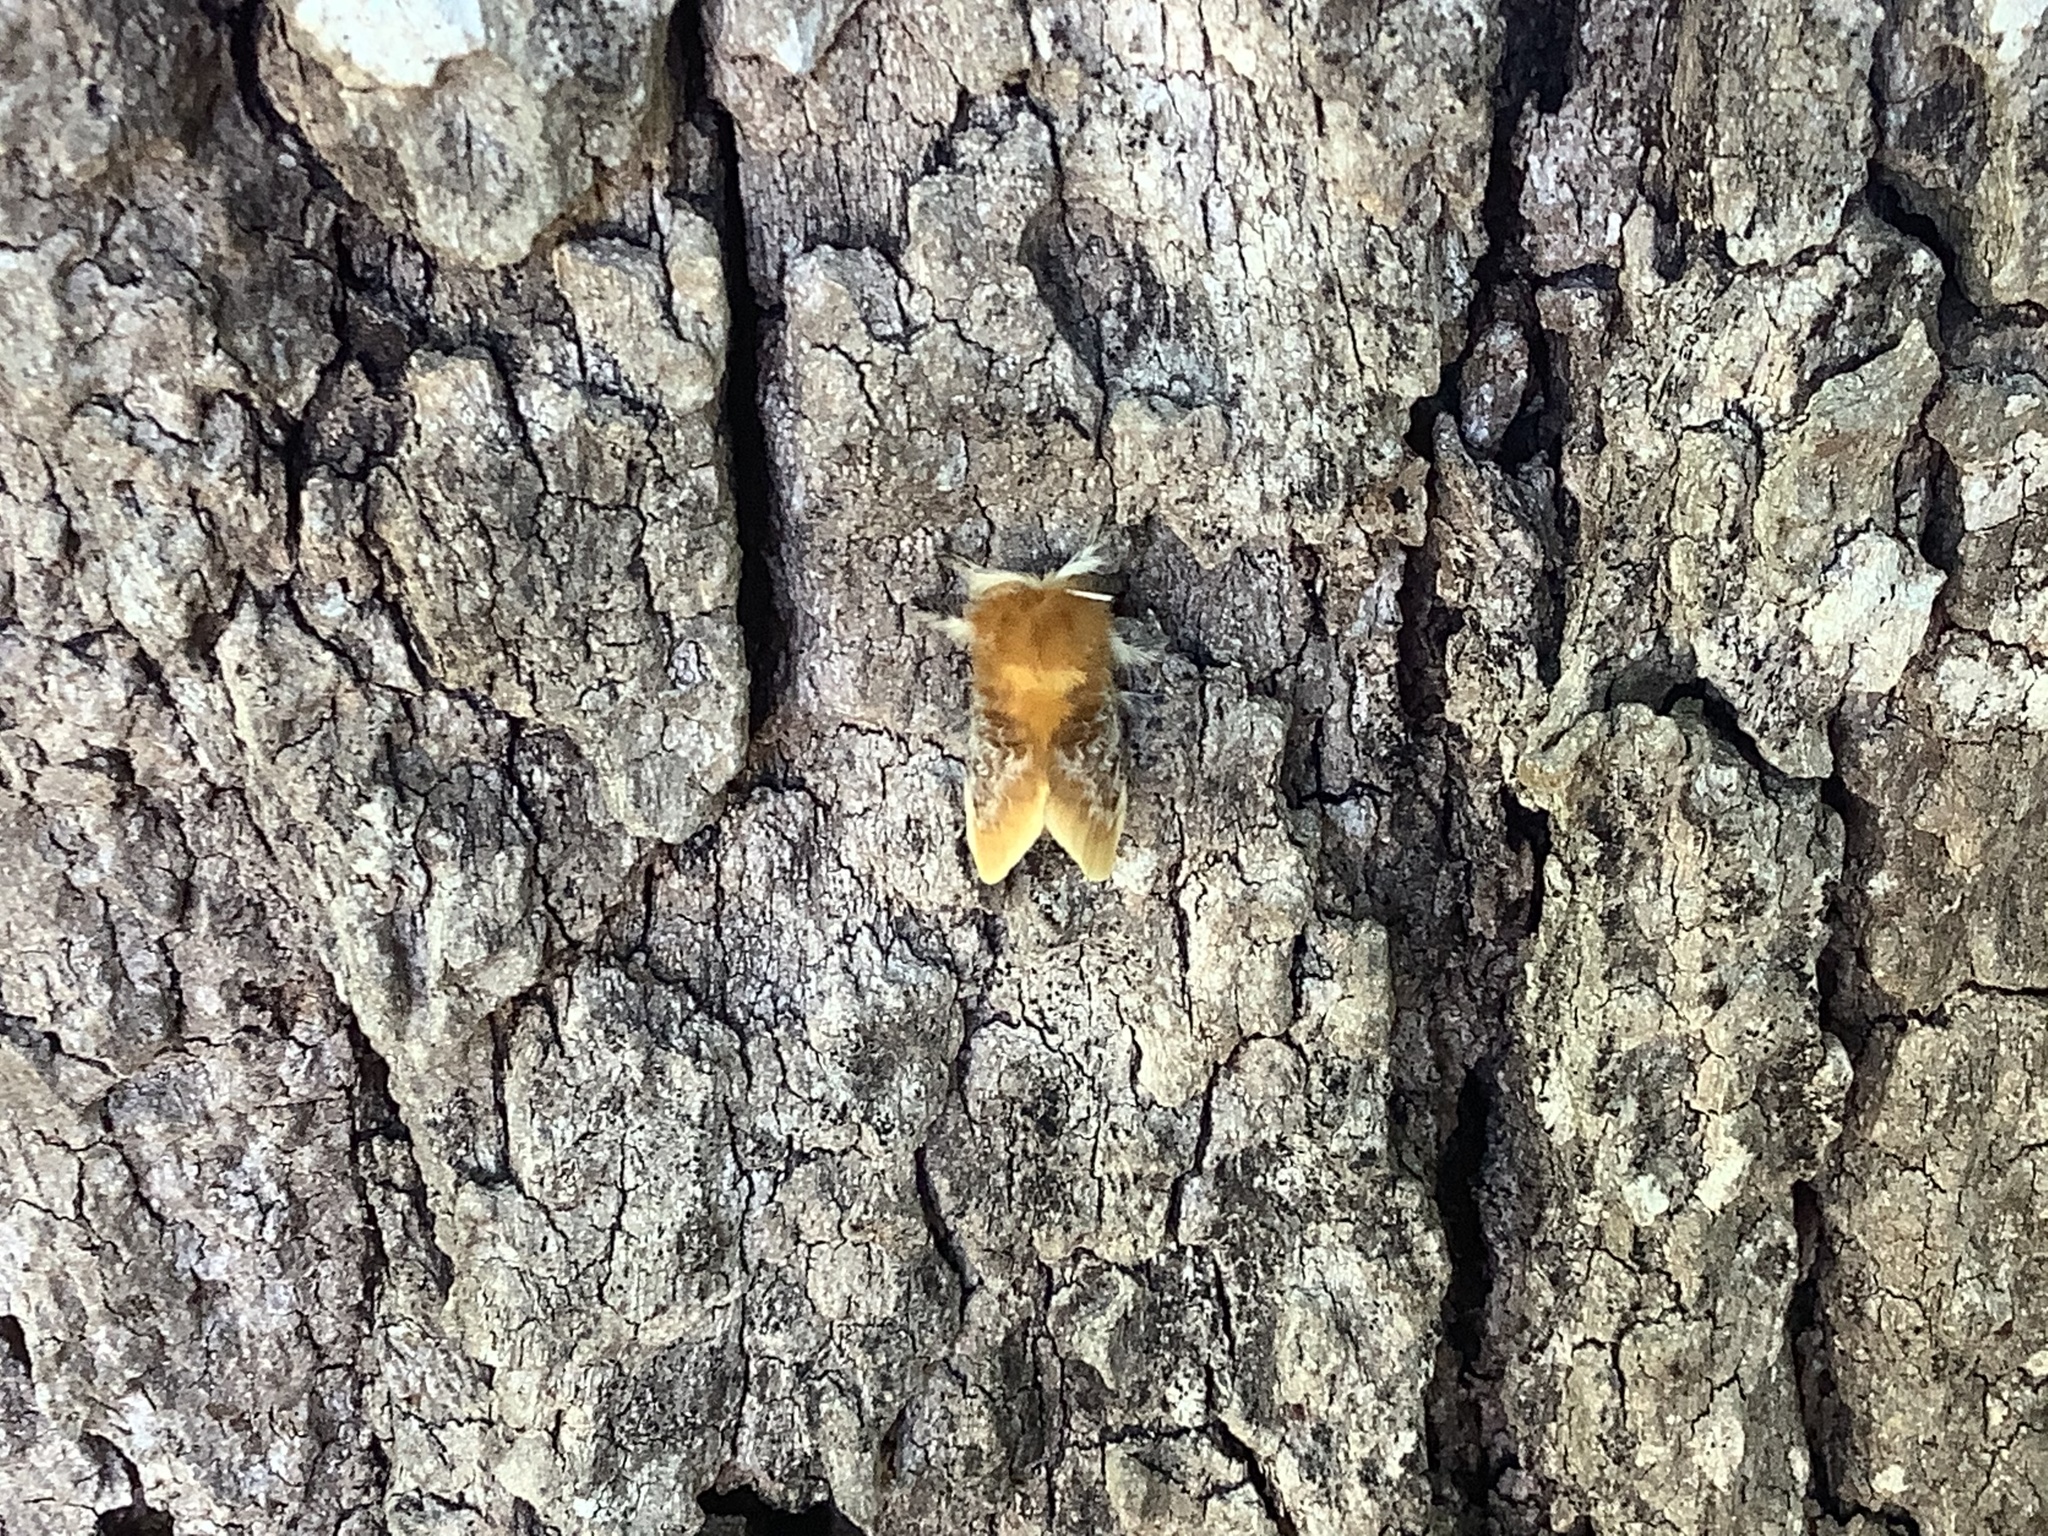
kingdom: Animalia
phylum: Arthropoda
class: Insecta
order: Lepidoptera
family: Megalopygidae
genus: Megalopyge
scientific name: Megalopyge opercularis
